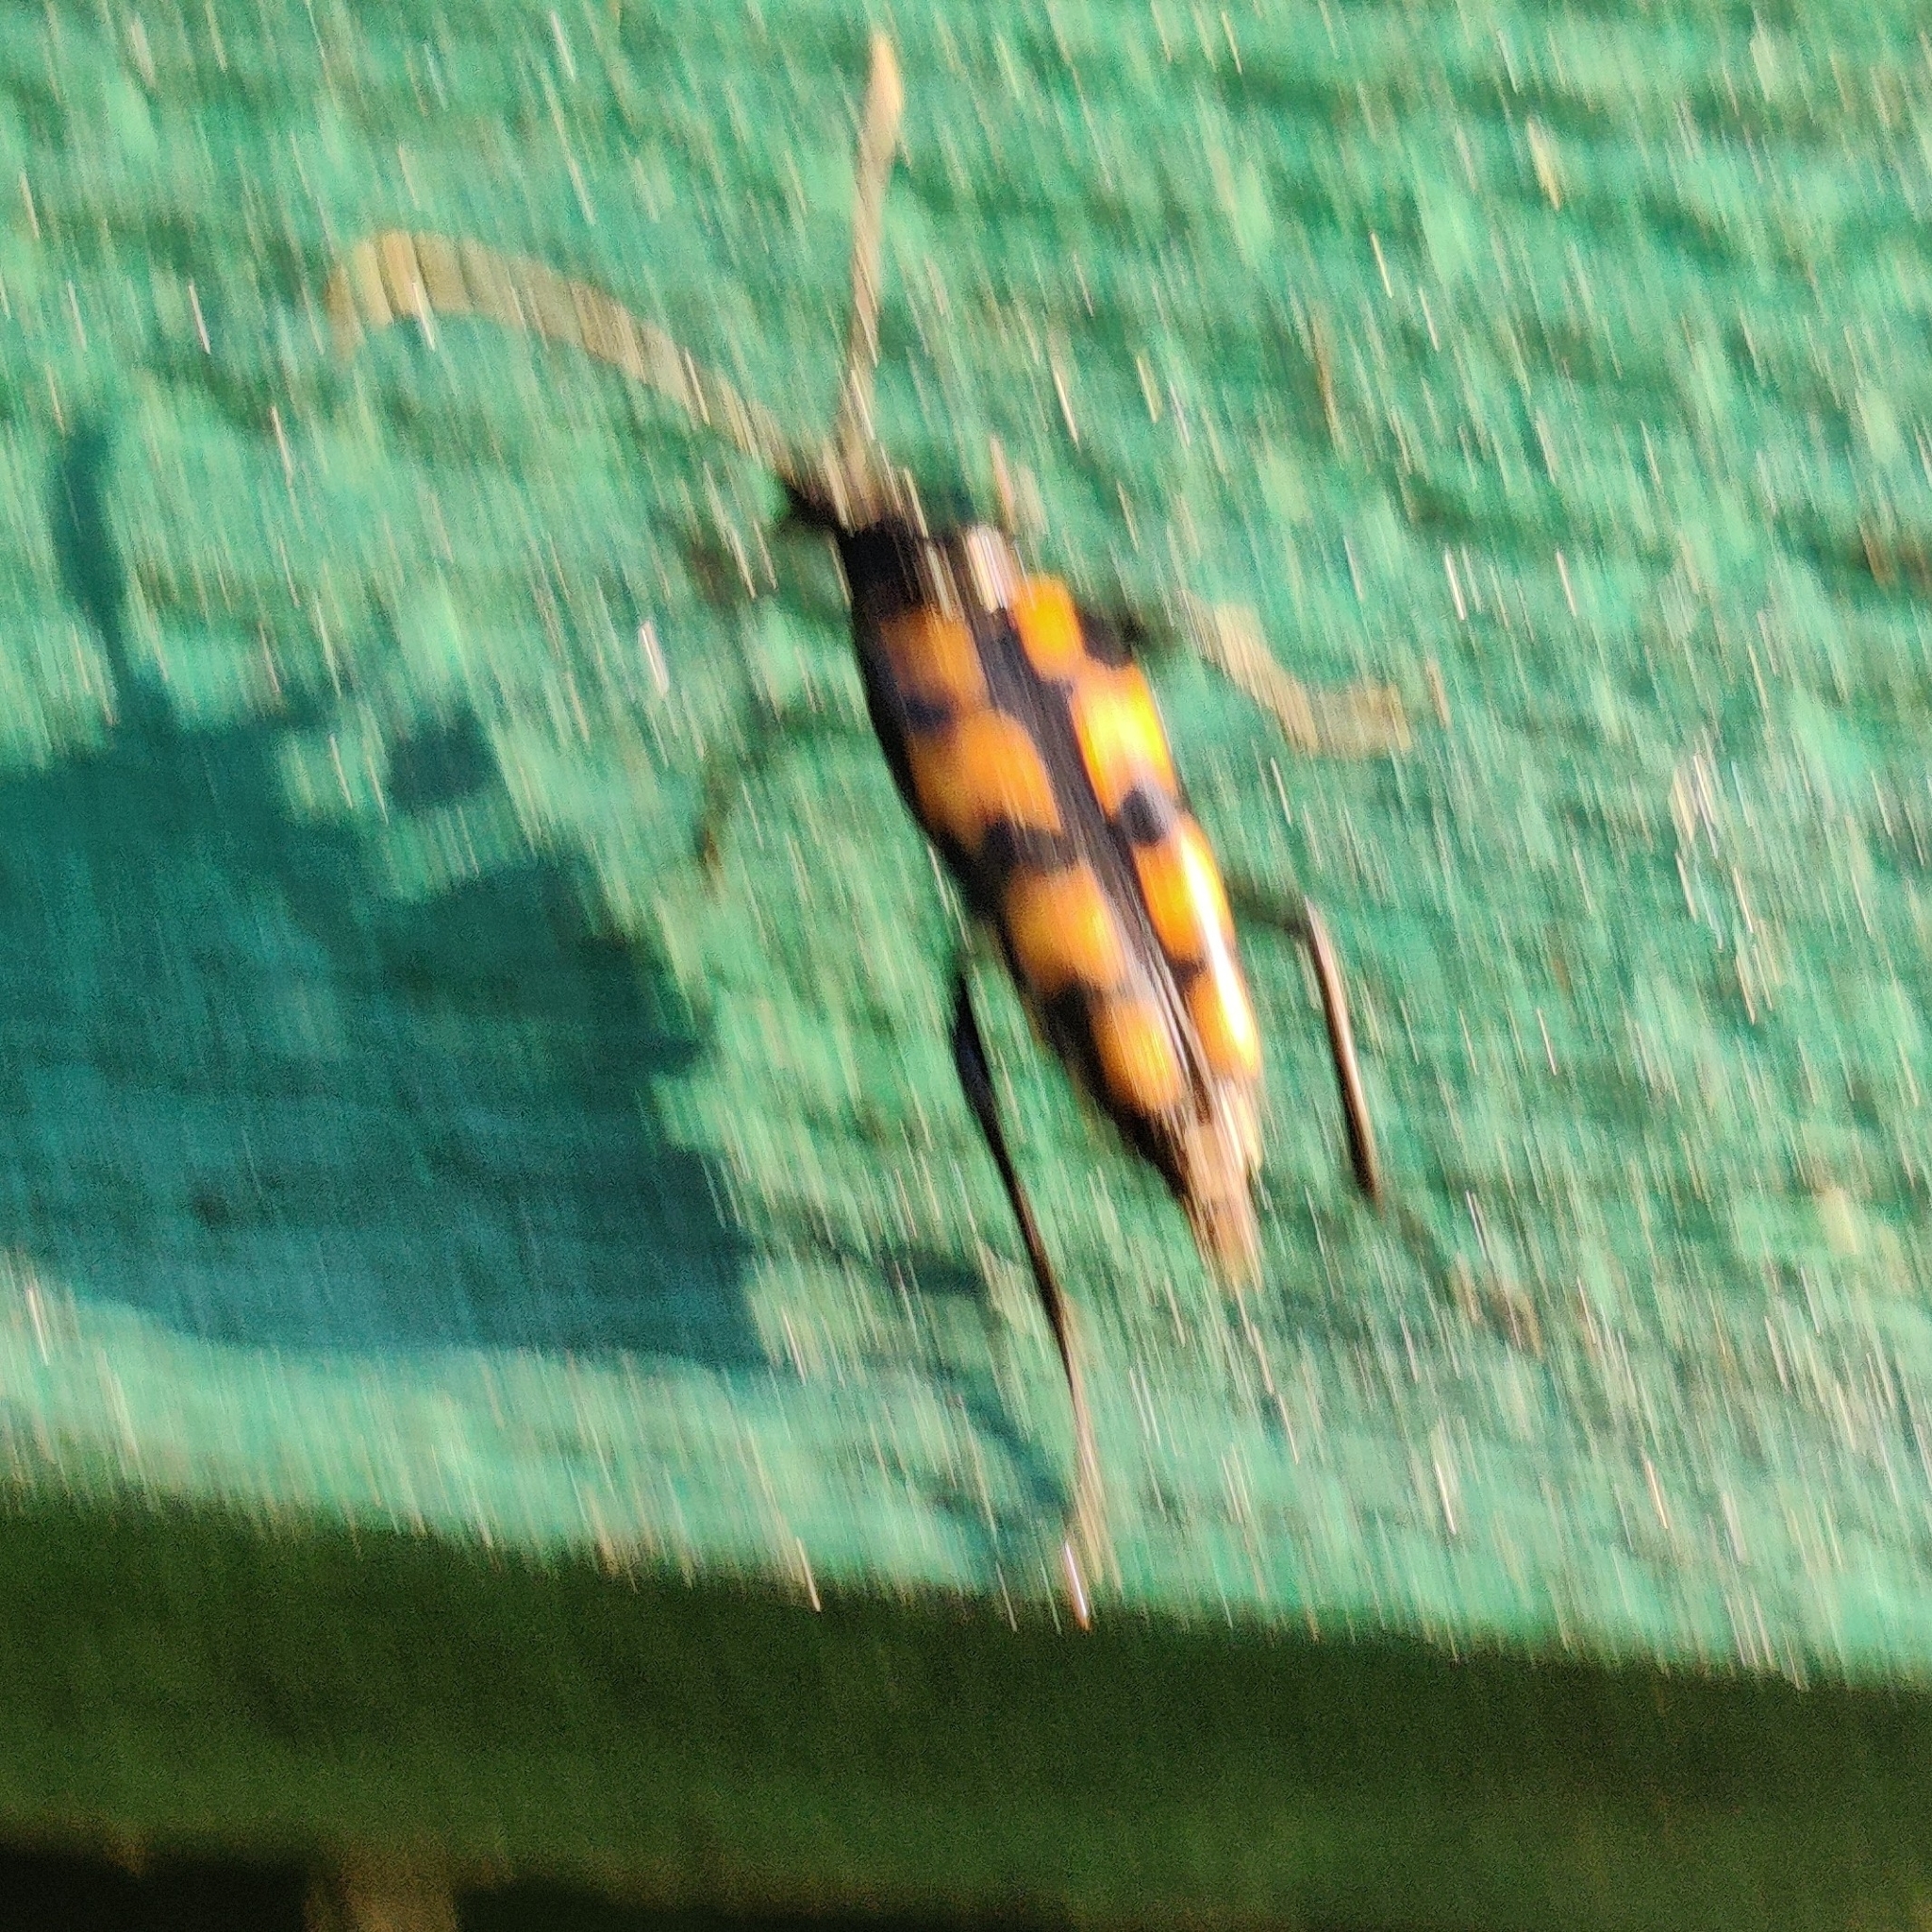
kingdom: Animalia
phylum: Arthropoda
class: Insecta
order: Coleoptera
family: Cerambycidae
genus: Leptura
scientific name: Leptura quadrifasciata
